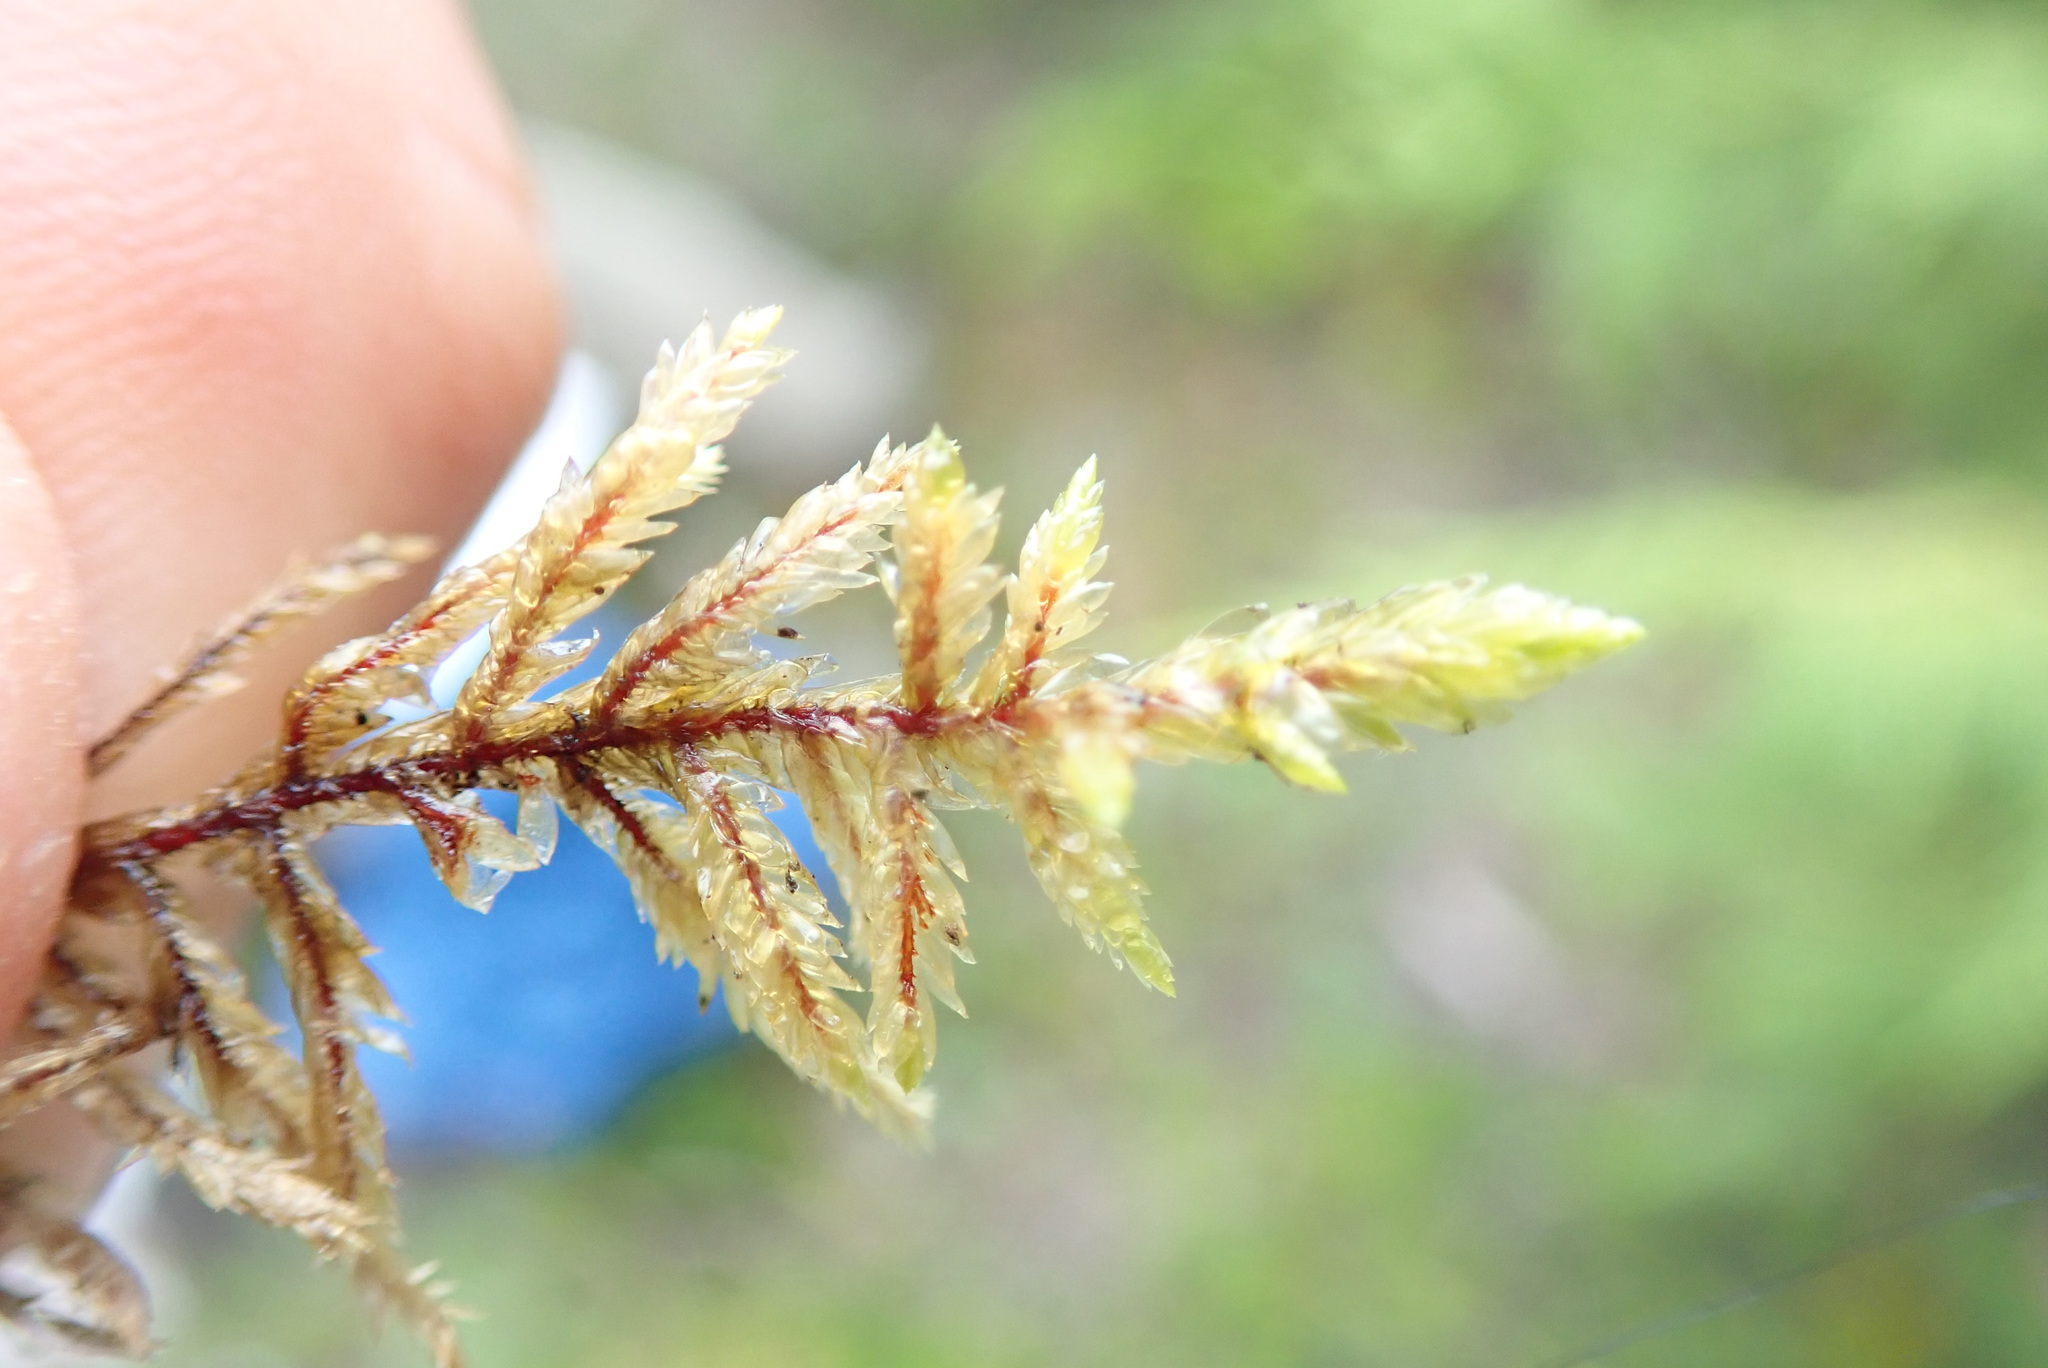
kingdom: Plantae
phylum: Bryophyta
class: Bryopsida
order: Hypnales
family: Hylocomiaceae
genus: Pleurozium
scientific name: Pleurozium schreberi
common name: Red-stemmed feather moss
